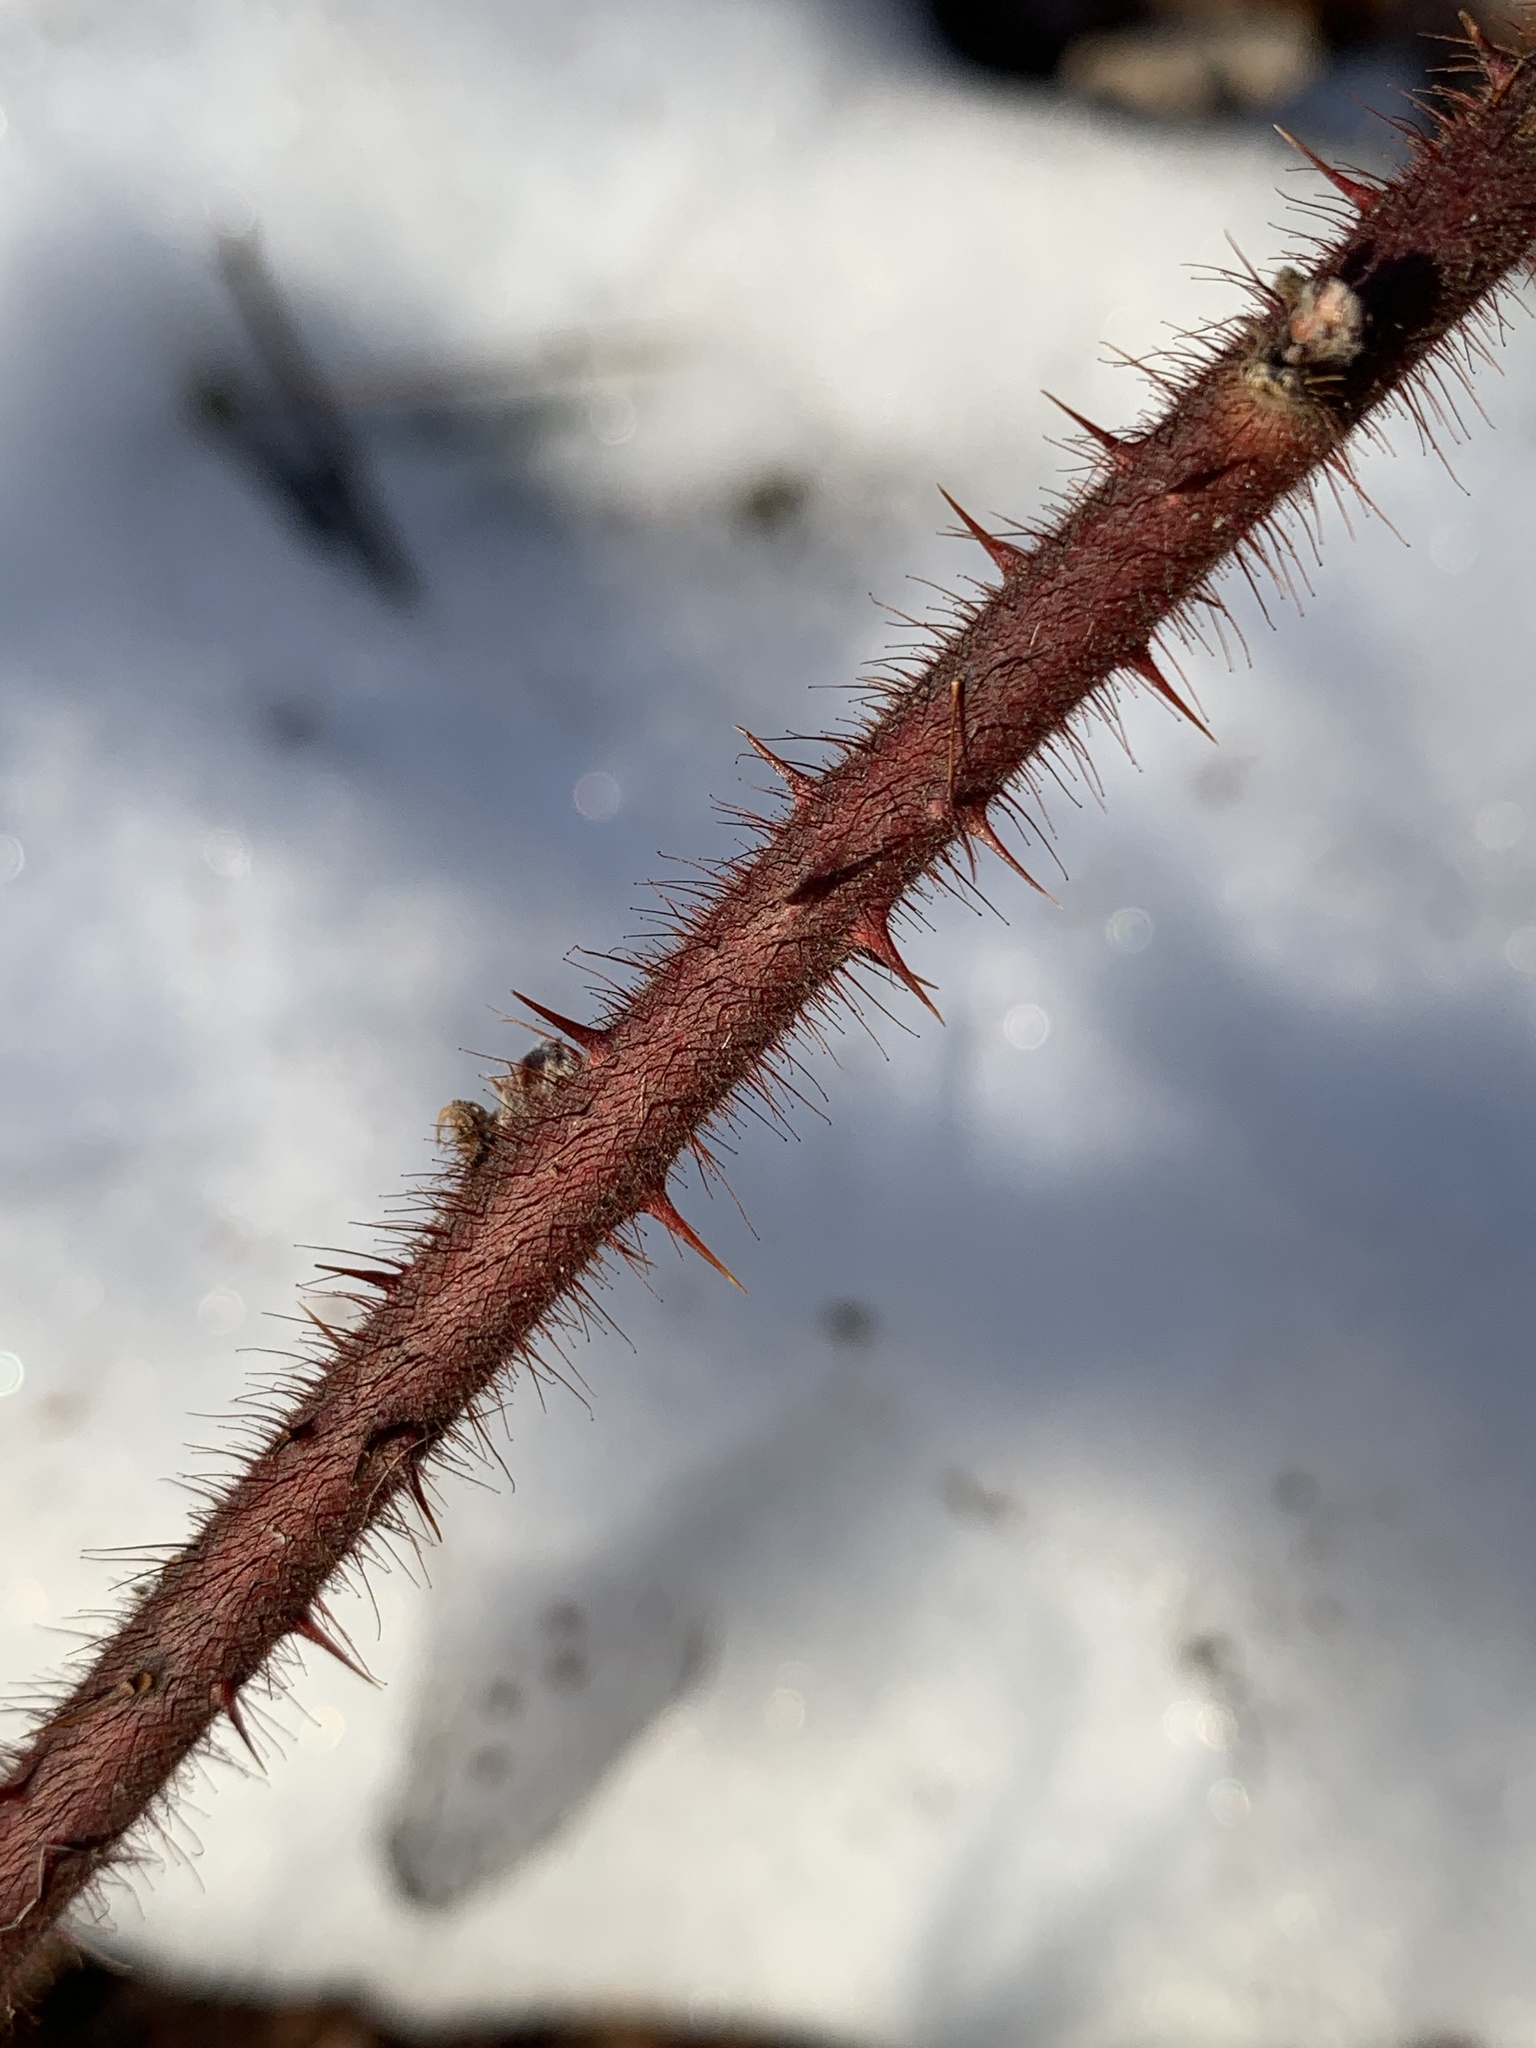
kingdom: Plantae
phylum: Tracheophyta
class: Magnoliopsida
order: Rosales
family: Rosaceae
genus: Rubus
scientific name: Rubus phoenicolasius
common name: Japanese wineberry
